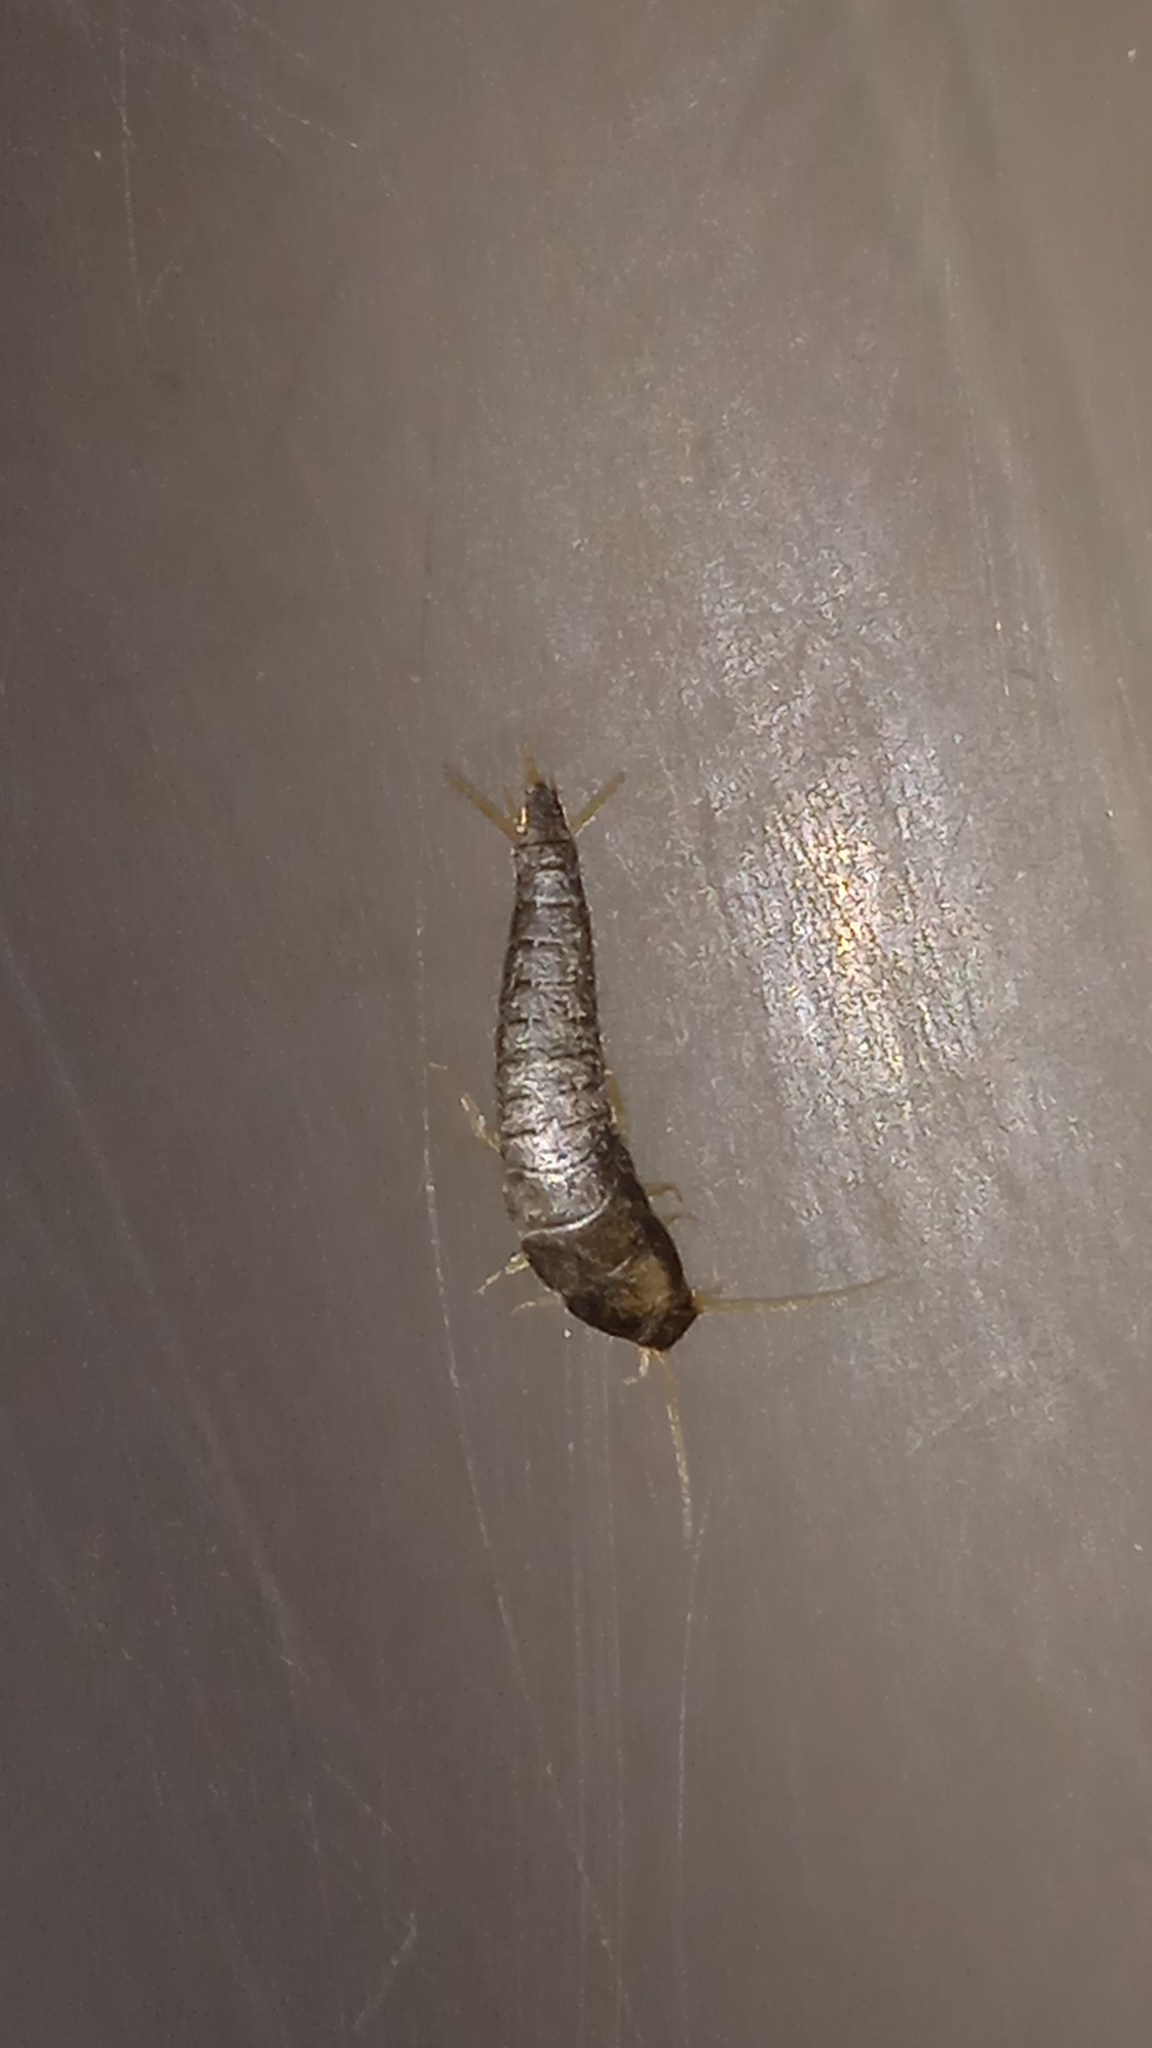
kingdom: Animalia
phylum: Arthropoda
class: Insecta
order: Zygentoma
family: Lepismatidae
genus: Lepisma
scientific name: Lepisma saccharinum
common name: Silverfish
